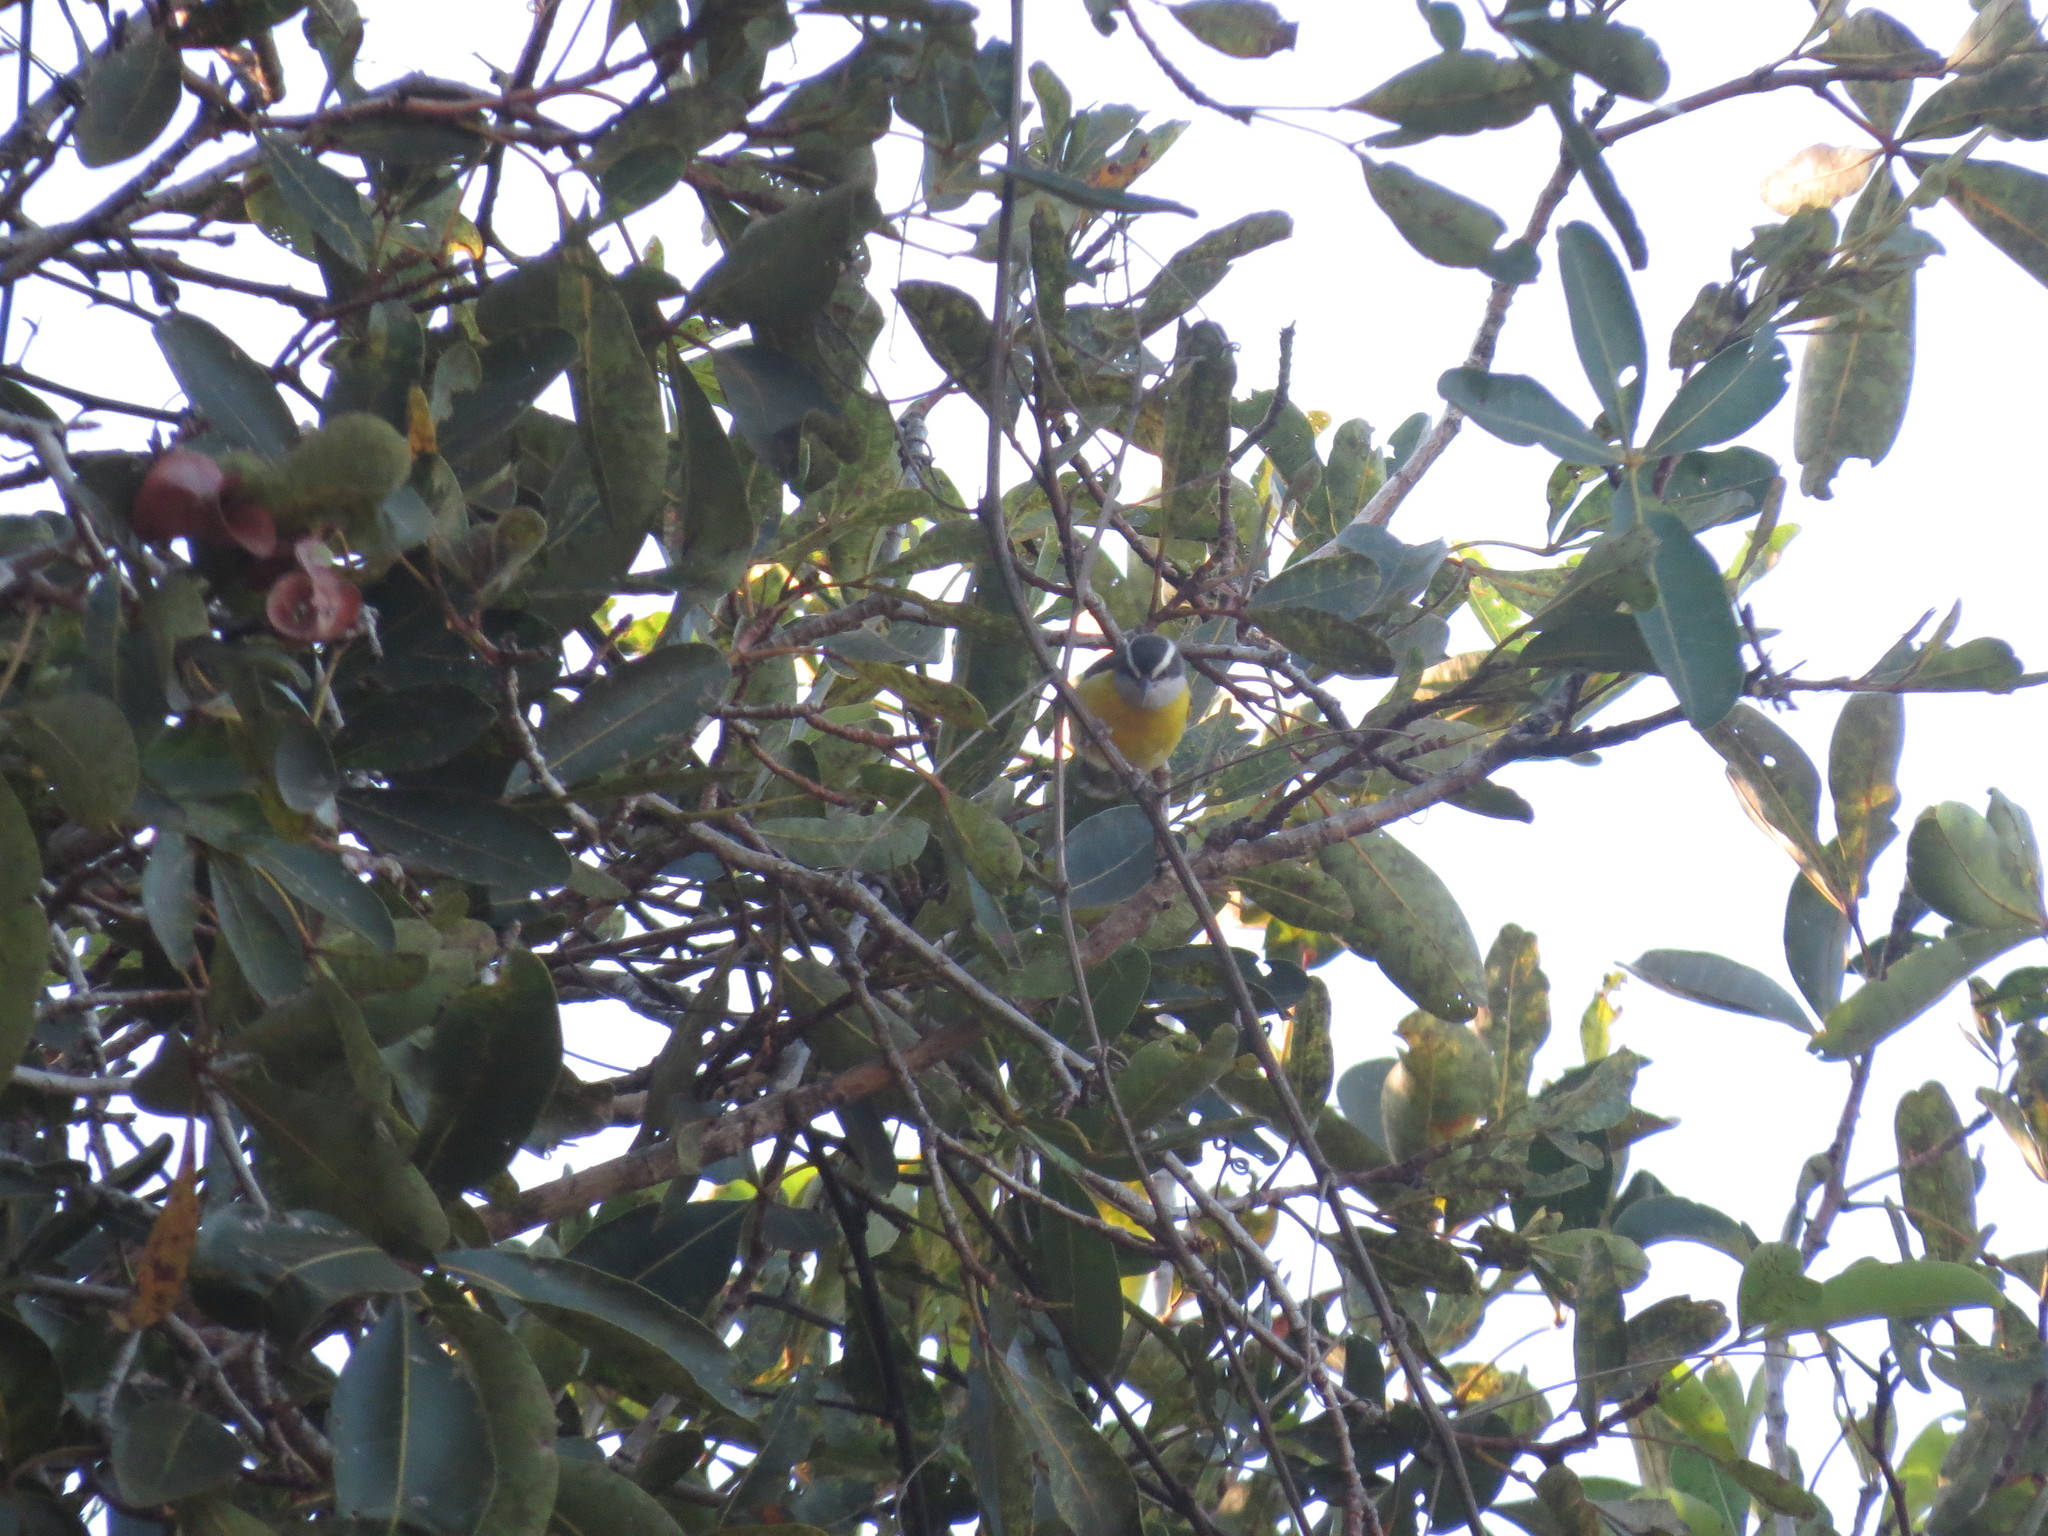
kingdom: Animalia
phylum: Chordata
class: Aves
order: Passeriformes
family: Thraupidae
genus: Coereba
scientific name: Coereba flaveola
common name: Bananaquit
